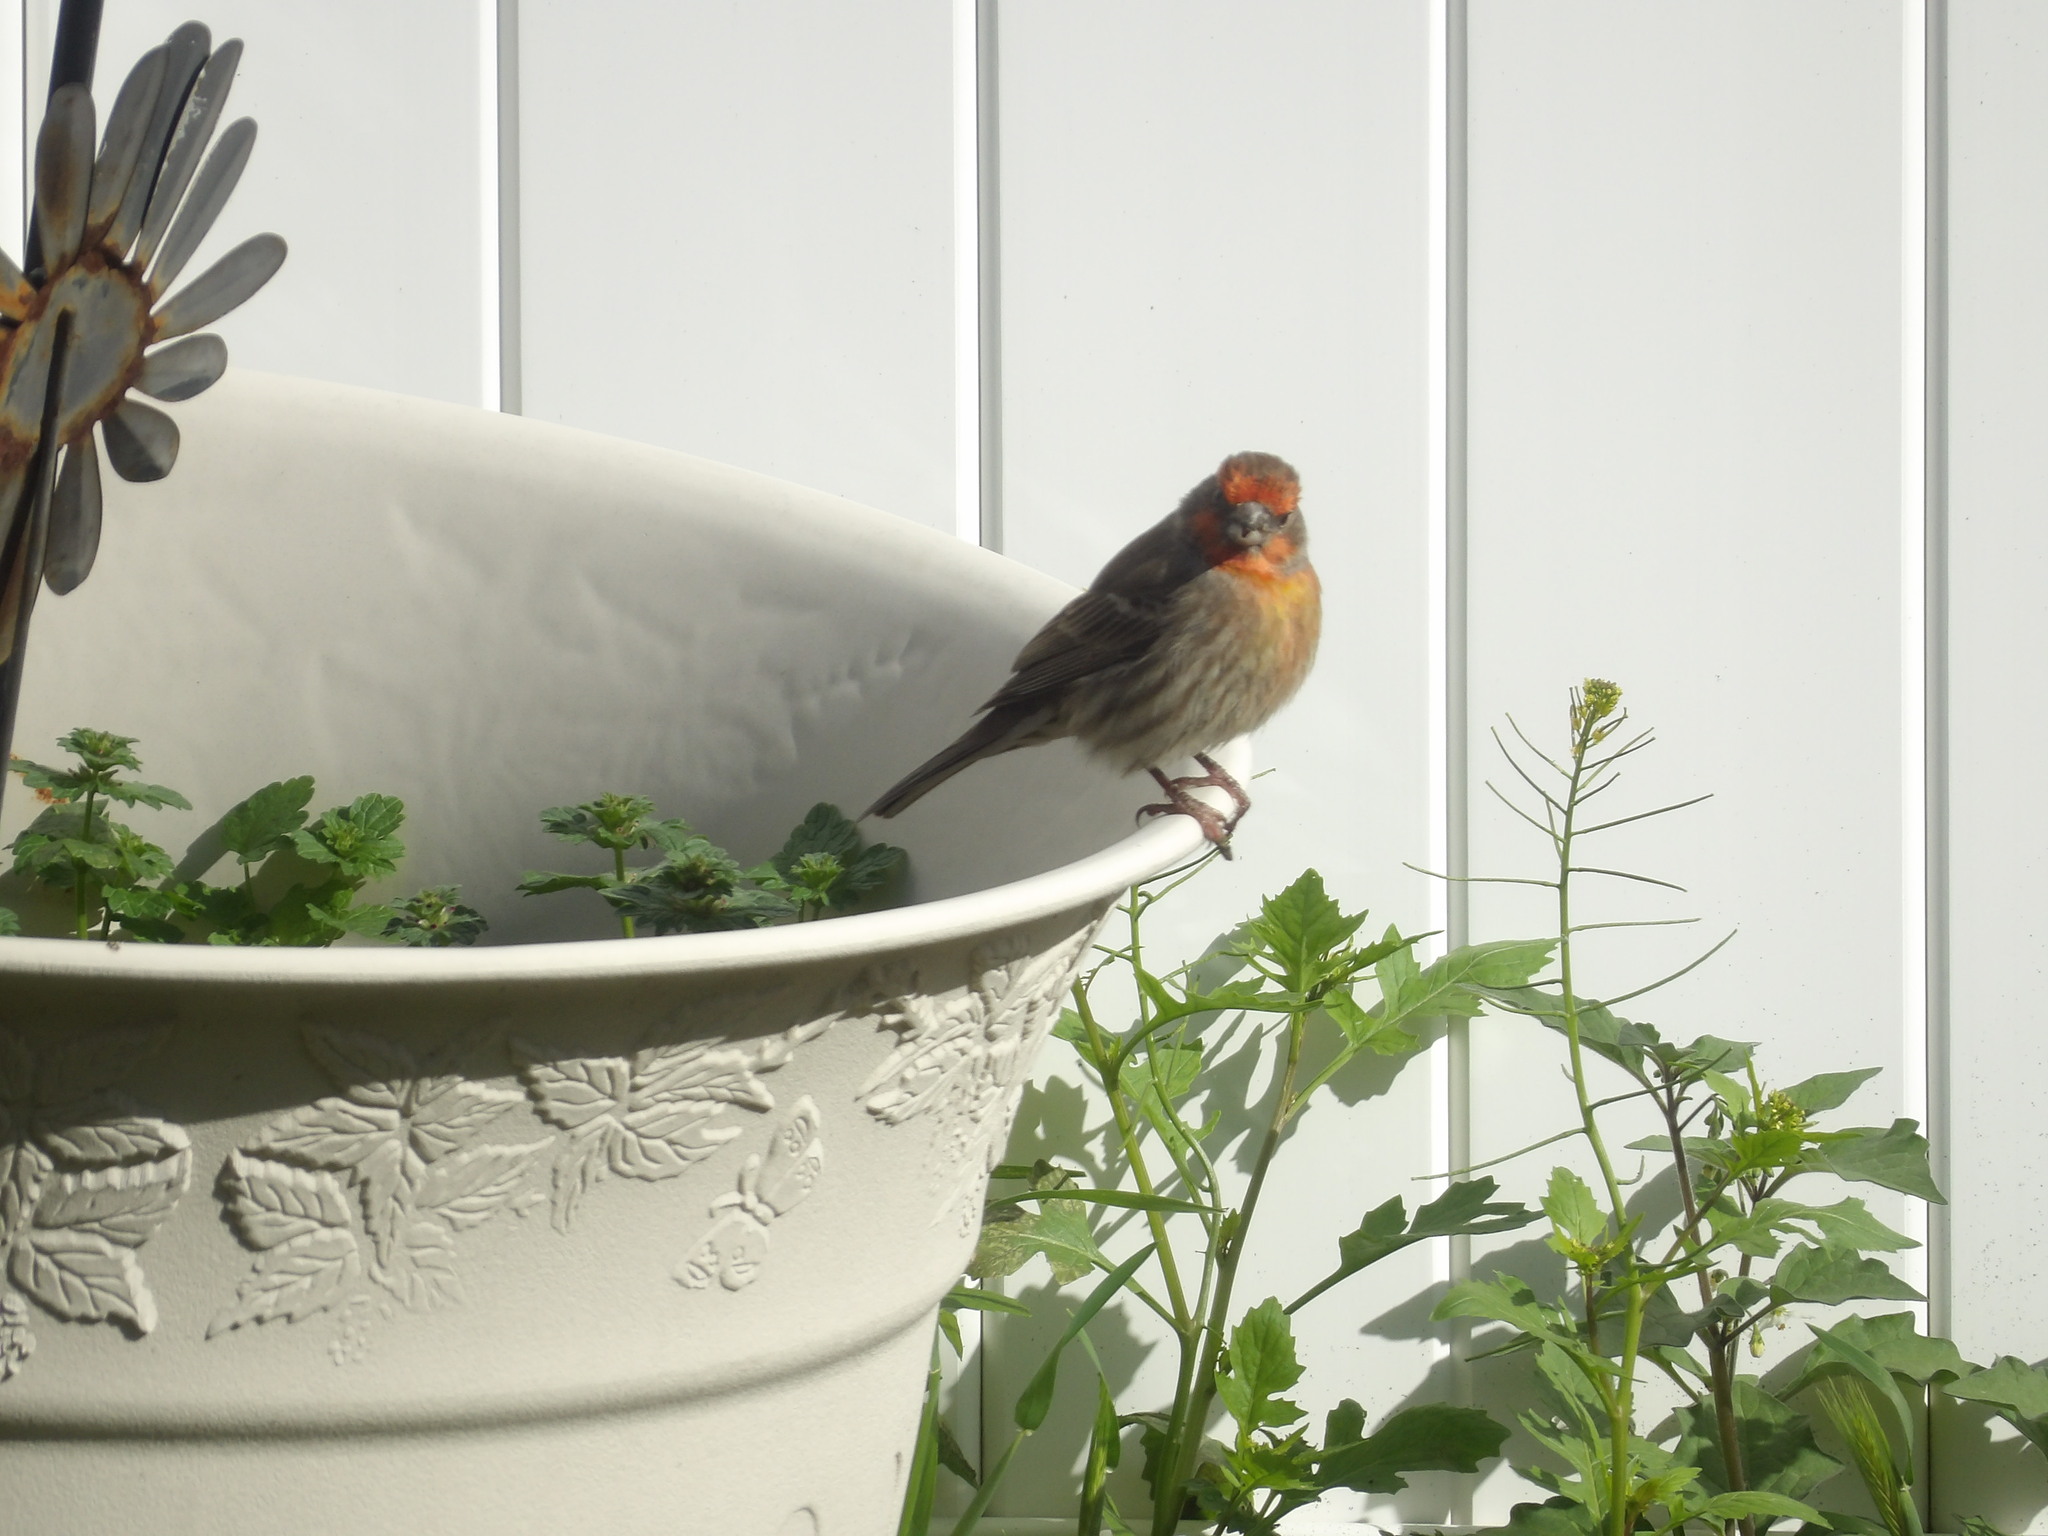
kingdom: Animalia
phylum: Chordata
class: Aves
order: Passeriformes
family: Fringillidae
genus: Haemorhous
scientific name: Haemorhous mexicanus
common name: House finch
